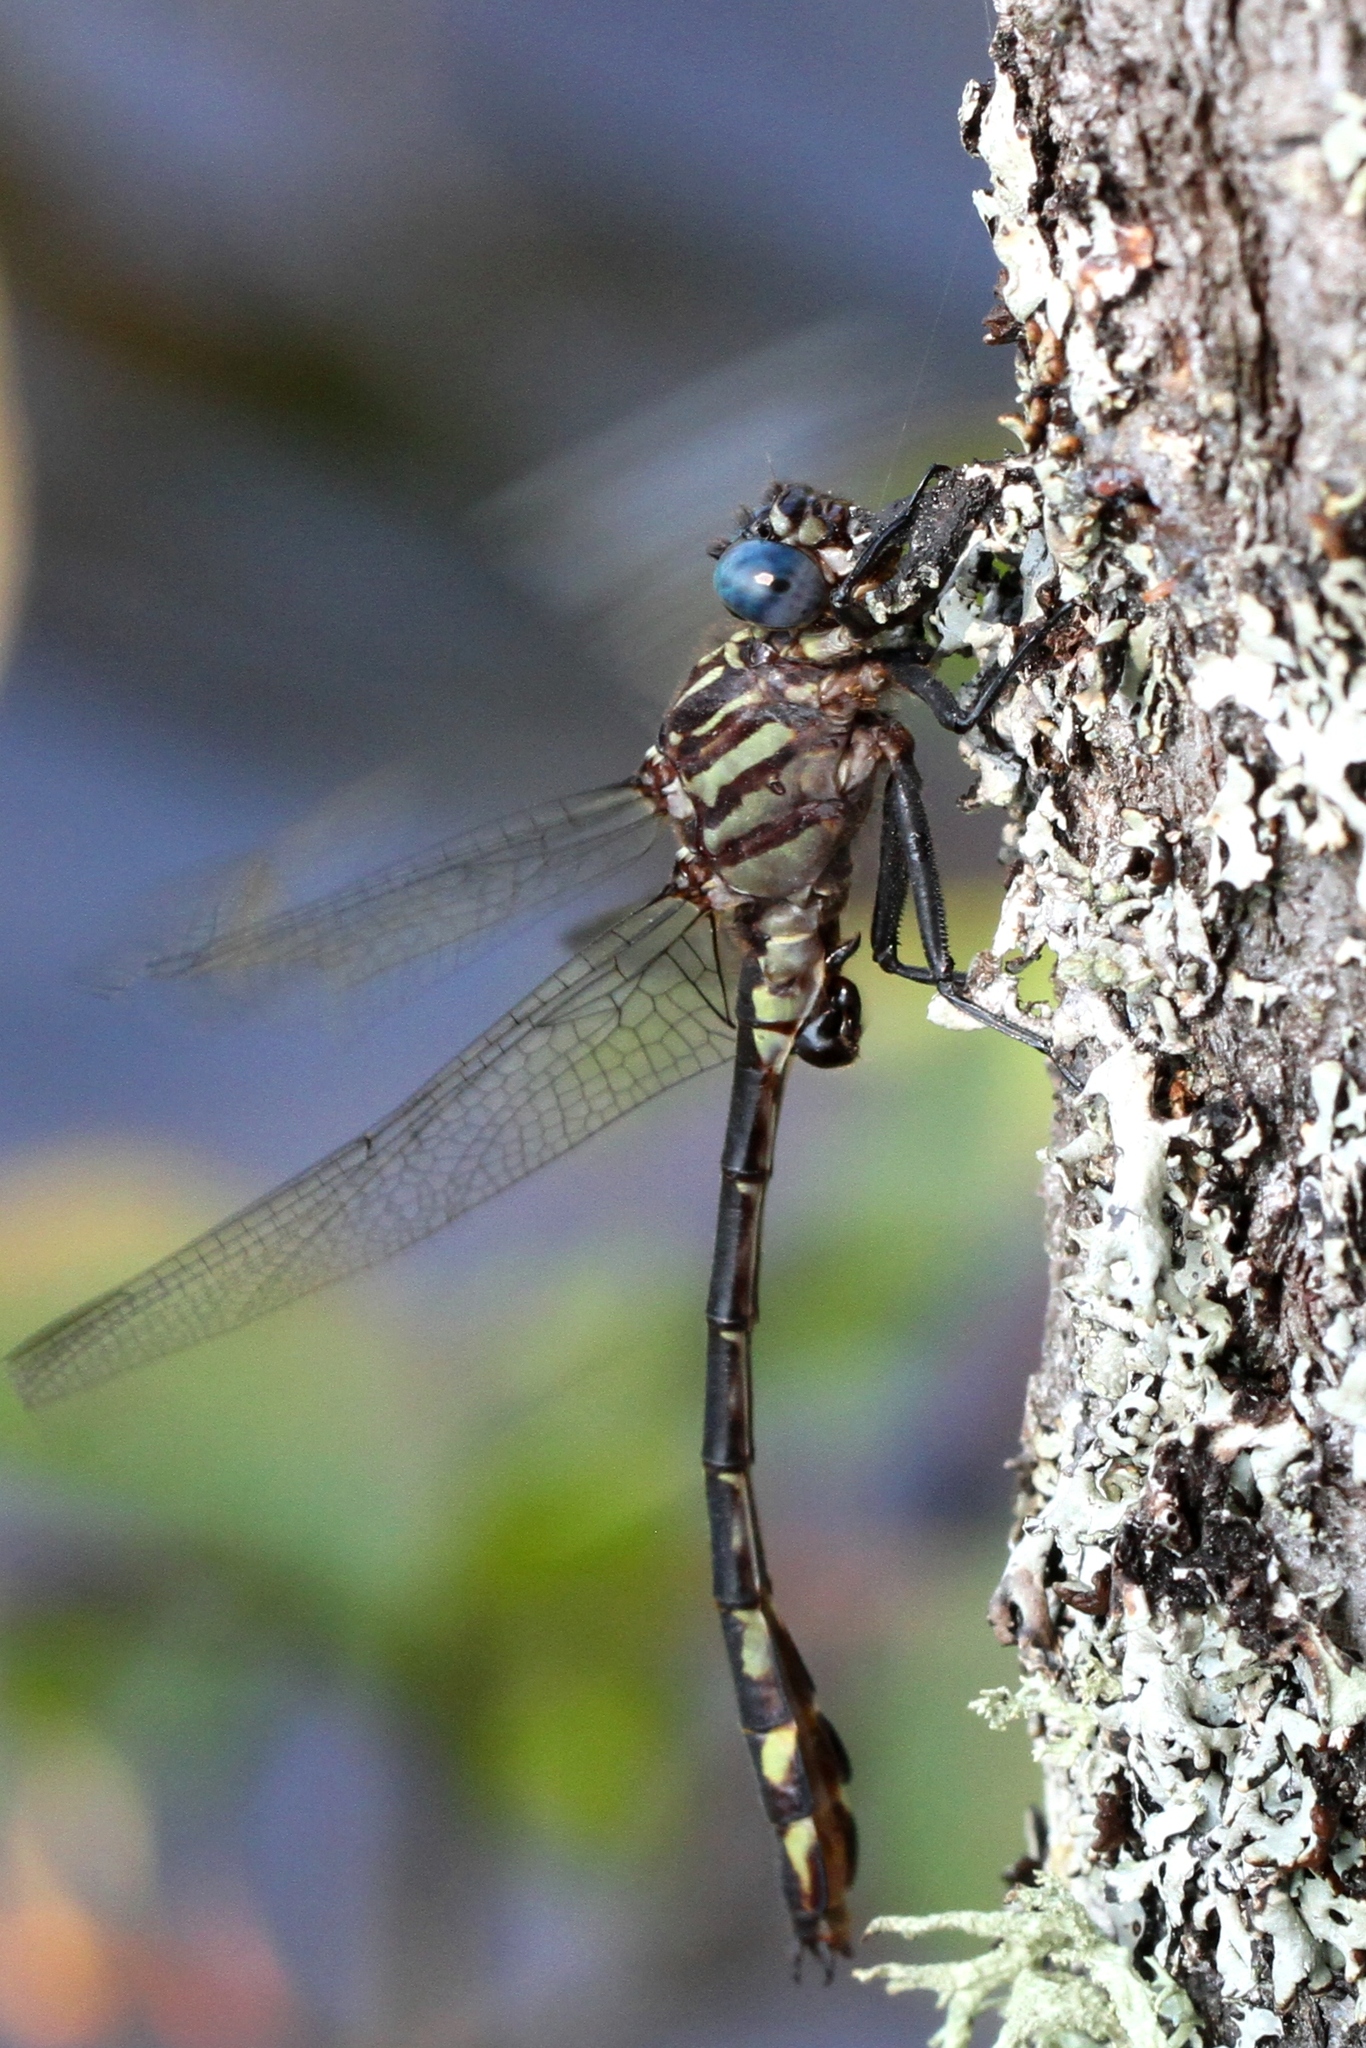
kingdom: Animalia
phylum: Arthropoda
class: Insecta
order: Odonata
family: Gomphidae
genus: Stylurus
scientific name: Stylurus notatus
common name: Elusive clubtail
